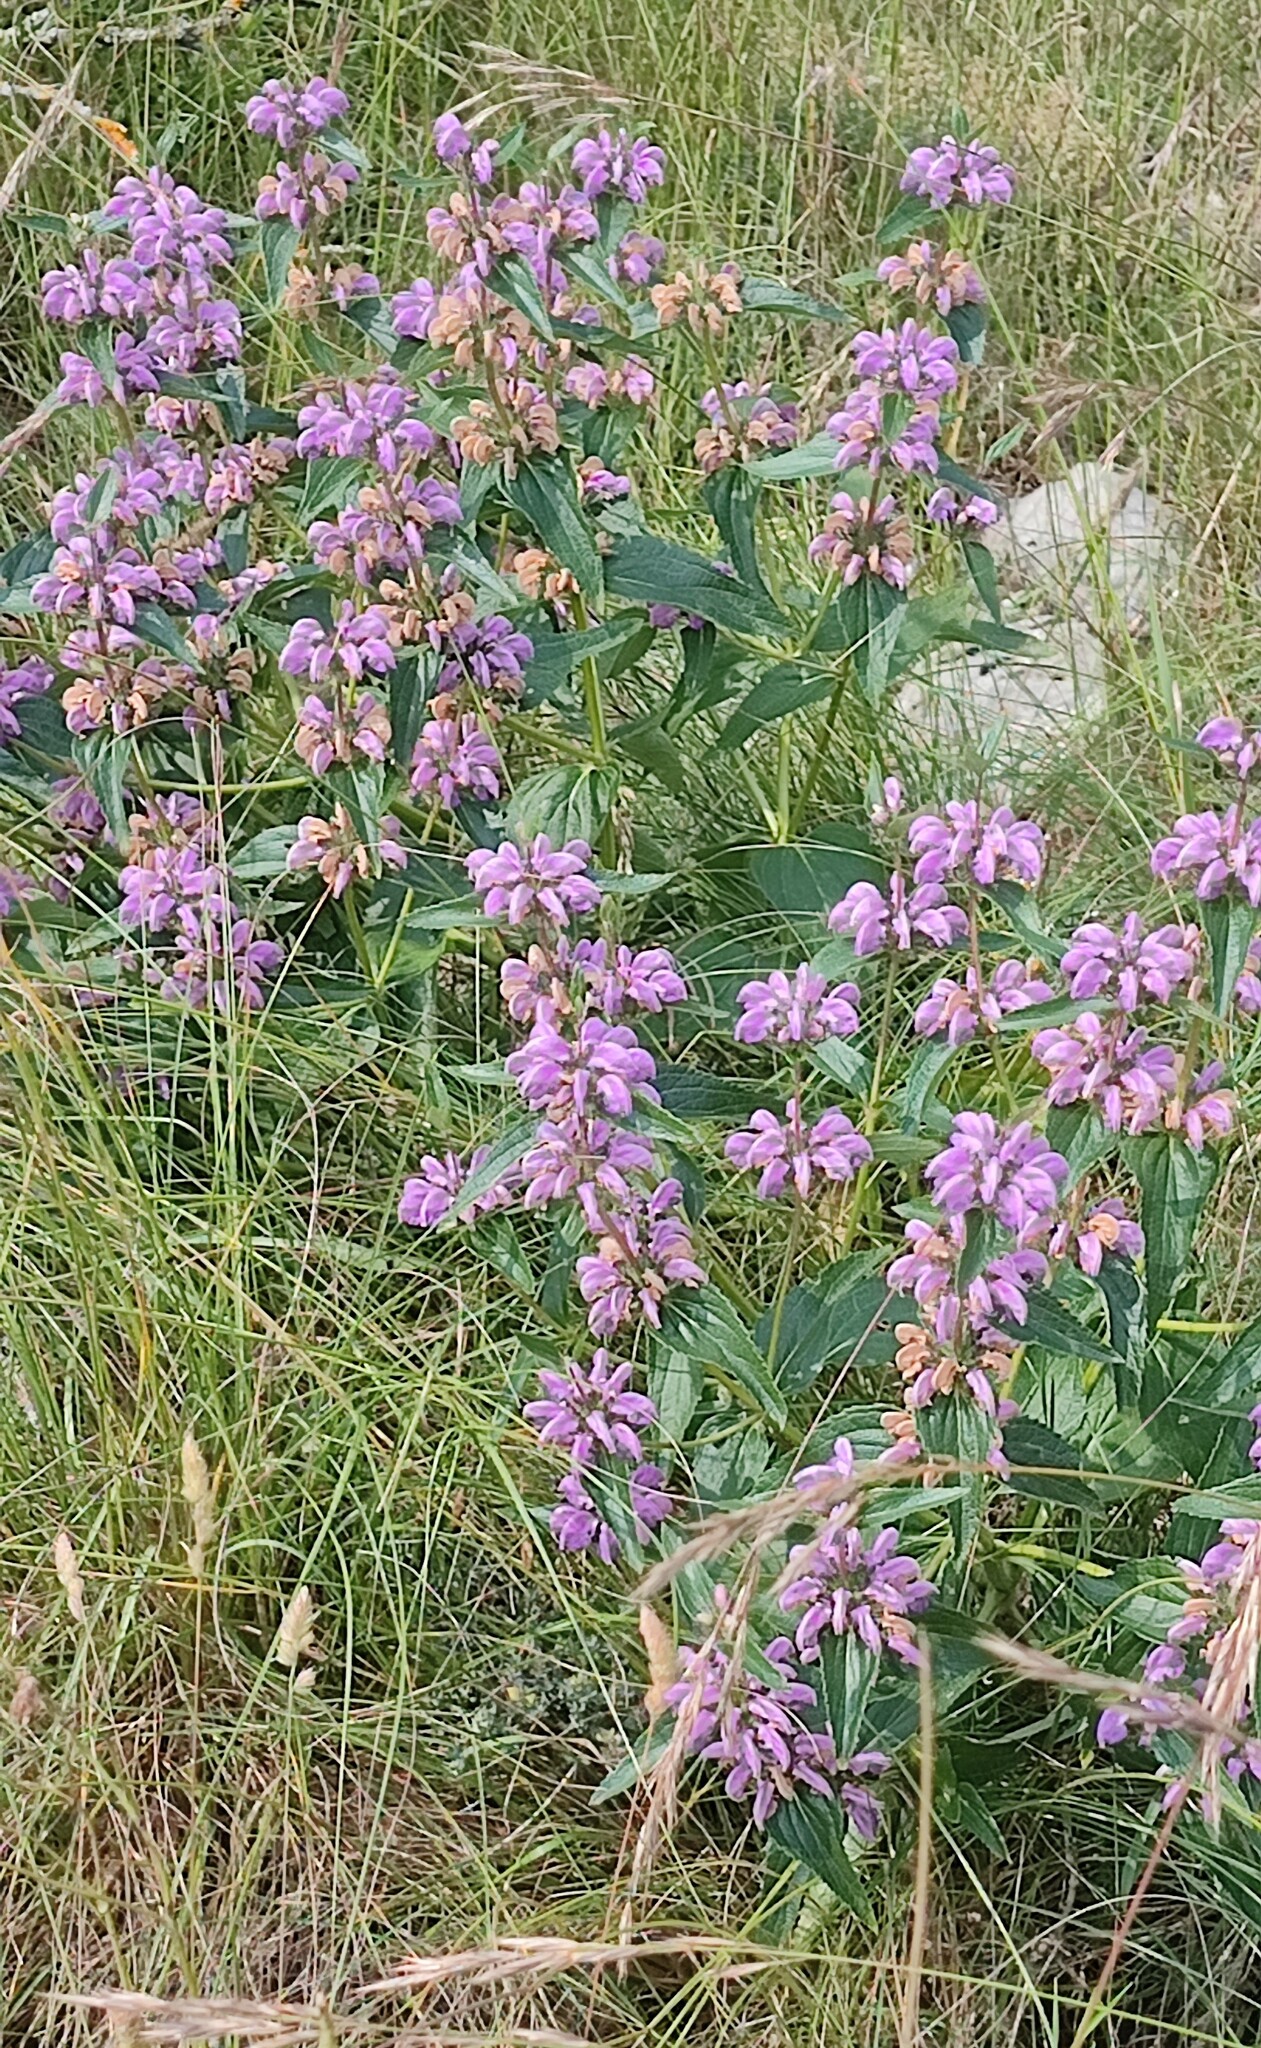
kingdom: Plantae
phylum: Tracheophyta
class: Magnoliopsida
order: Lamiales
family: Lamiaceae
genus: Phlomis
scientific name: Phlomis herba-venti
